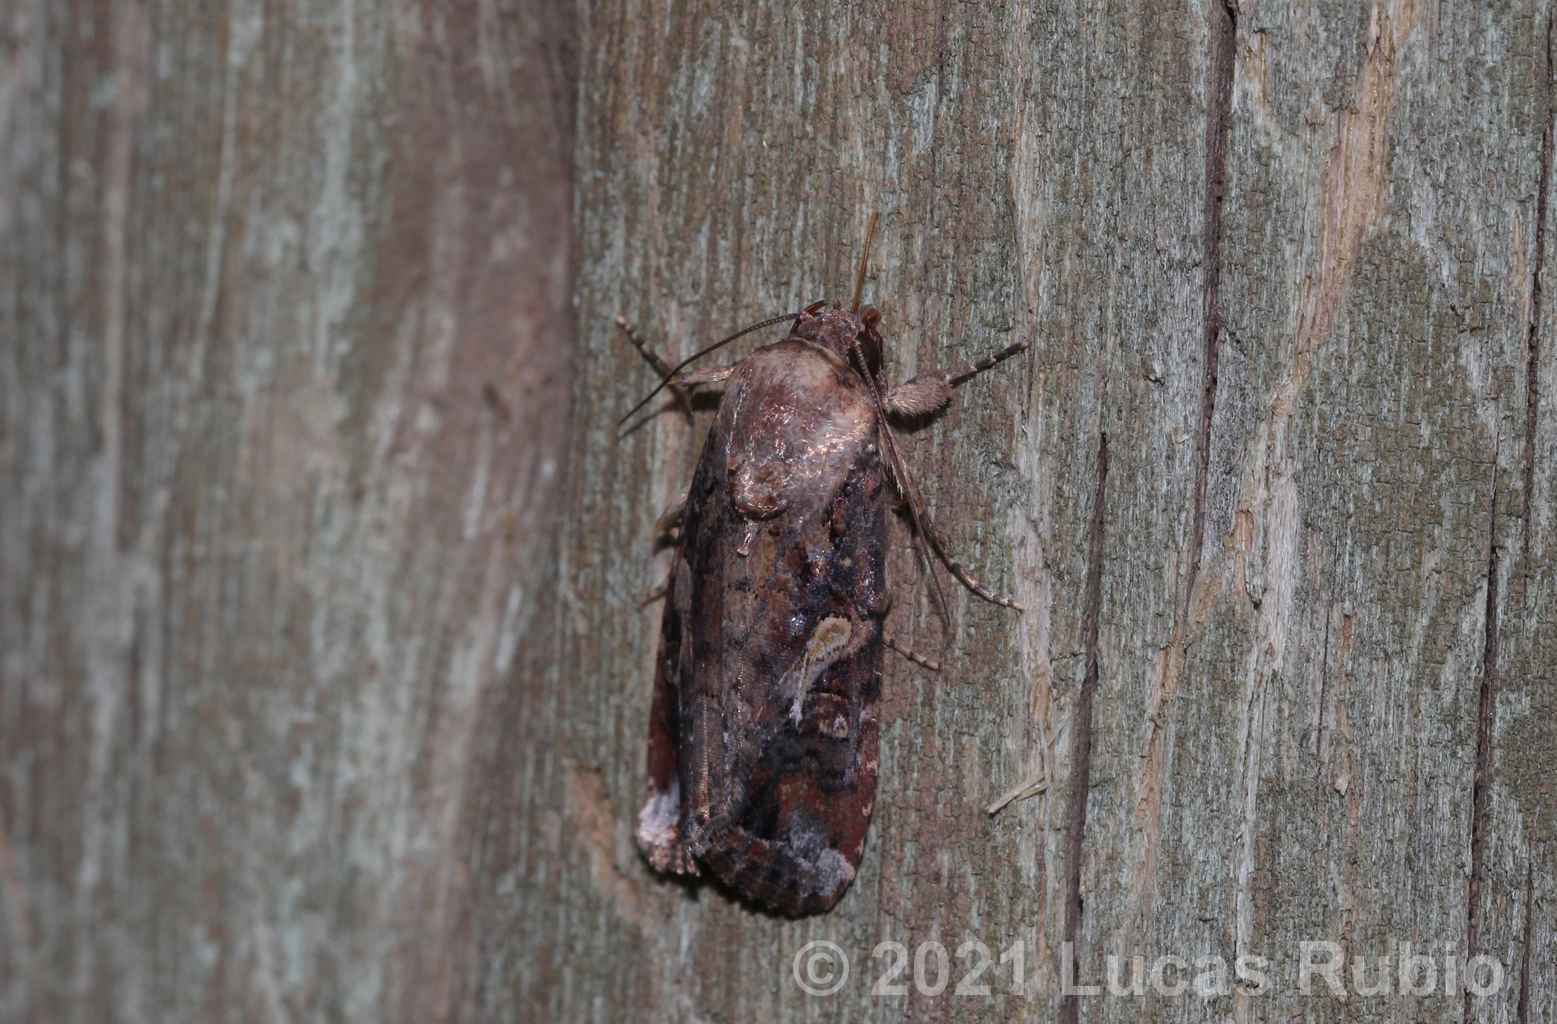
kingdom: Animalia
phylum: Arthropoda
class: Insecta
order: Lepidoptera
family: Noctuidae
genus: Spodoptera
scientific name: Spodoptera frugiperda
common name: Fall armyworm
